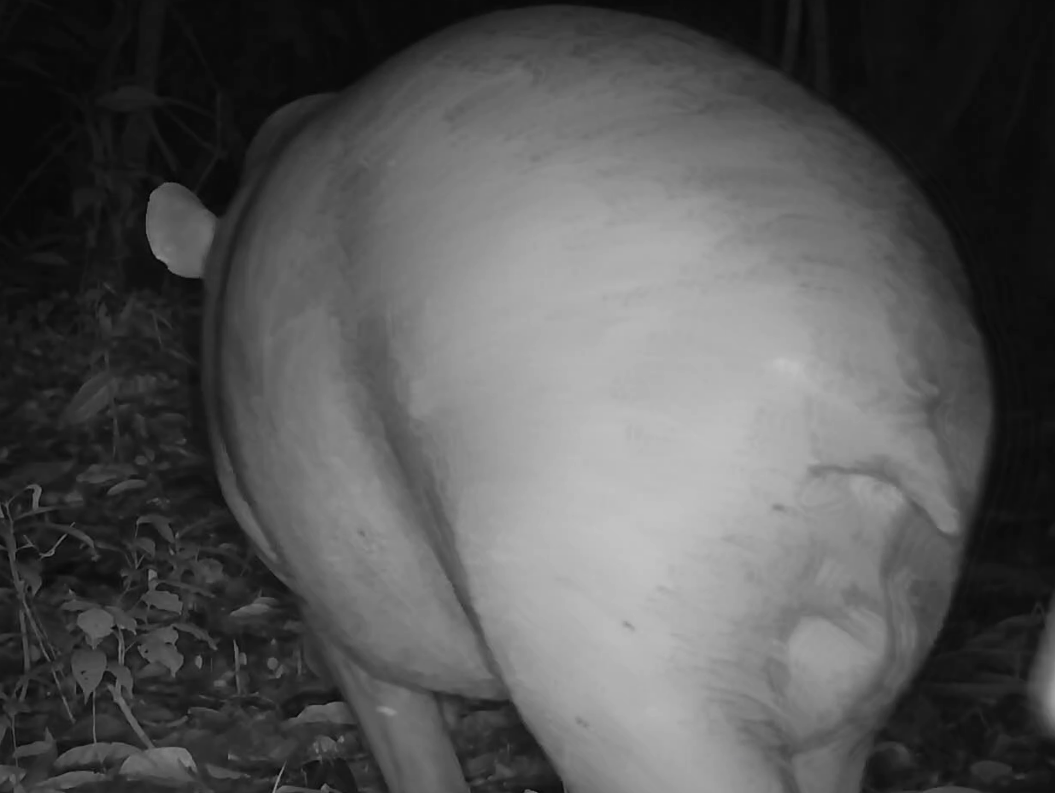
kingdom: Animalia
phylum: Chordata
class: Mammalia
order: Perissodactyla
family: Tapiridae
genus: Tapirus
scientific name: Tapirus terrestris
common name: Brazilian tapir
